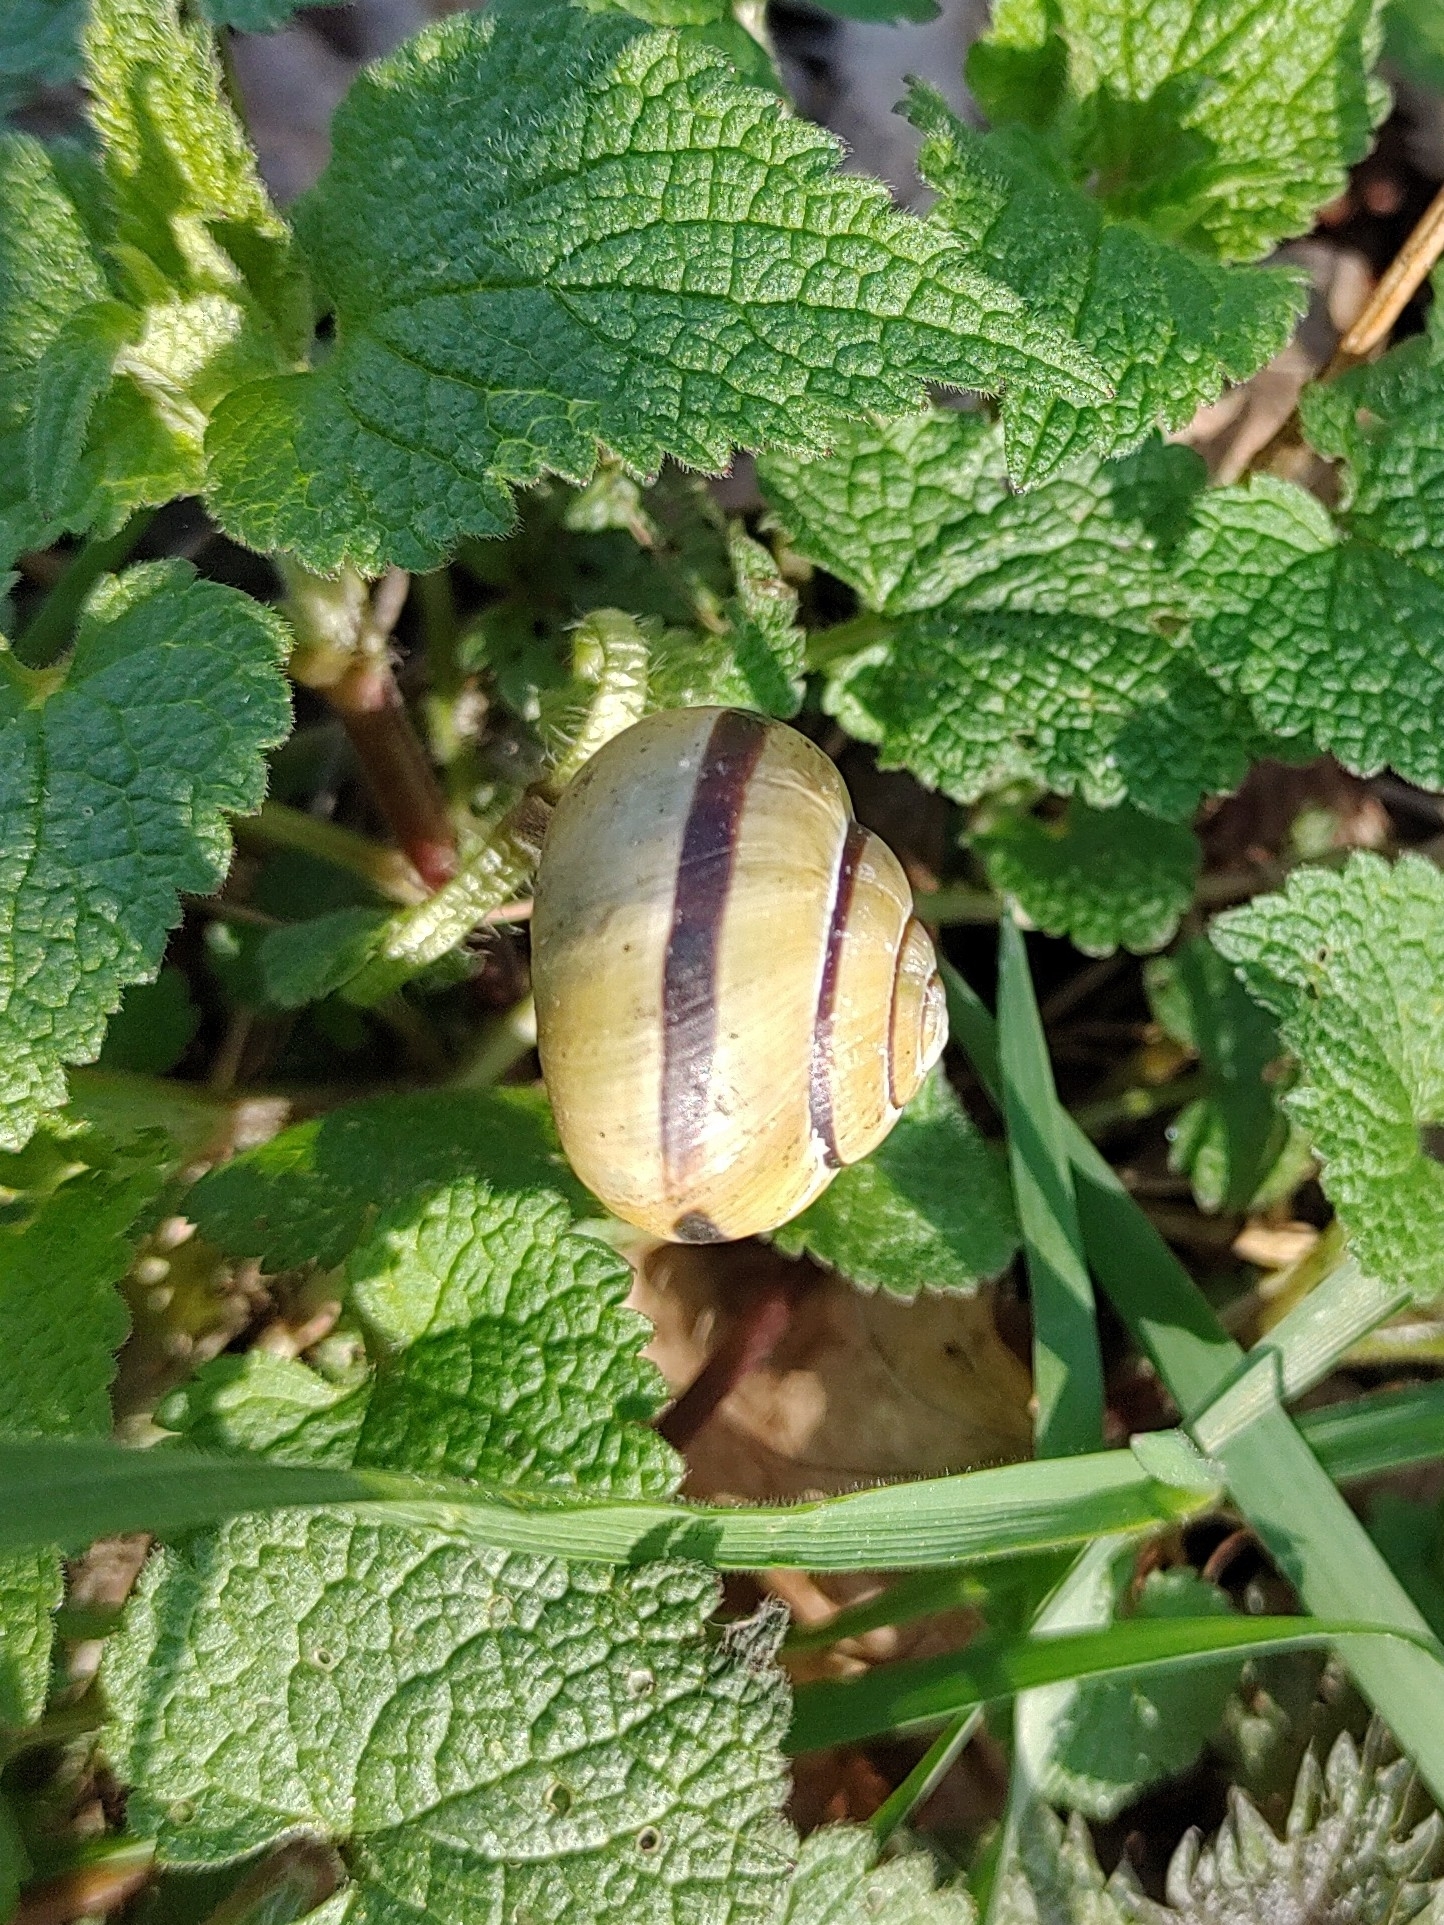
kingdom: Animalia
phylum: Mollusca
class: Gastropoda
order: Stylommatophora
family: Helicidae
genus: Cepaea
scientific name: Cepaea nemoralis
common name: Grovesnail
